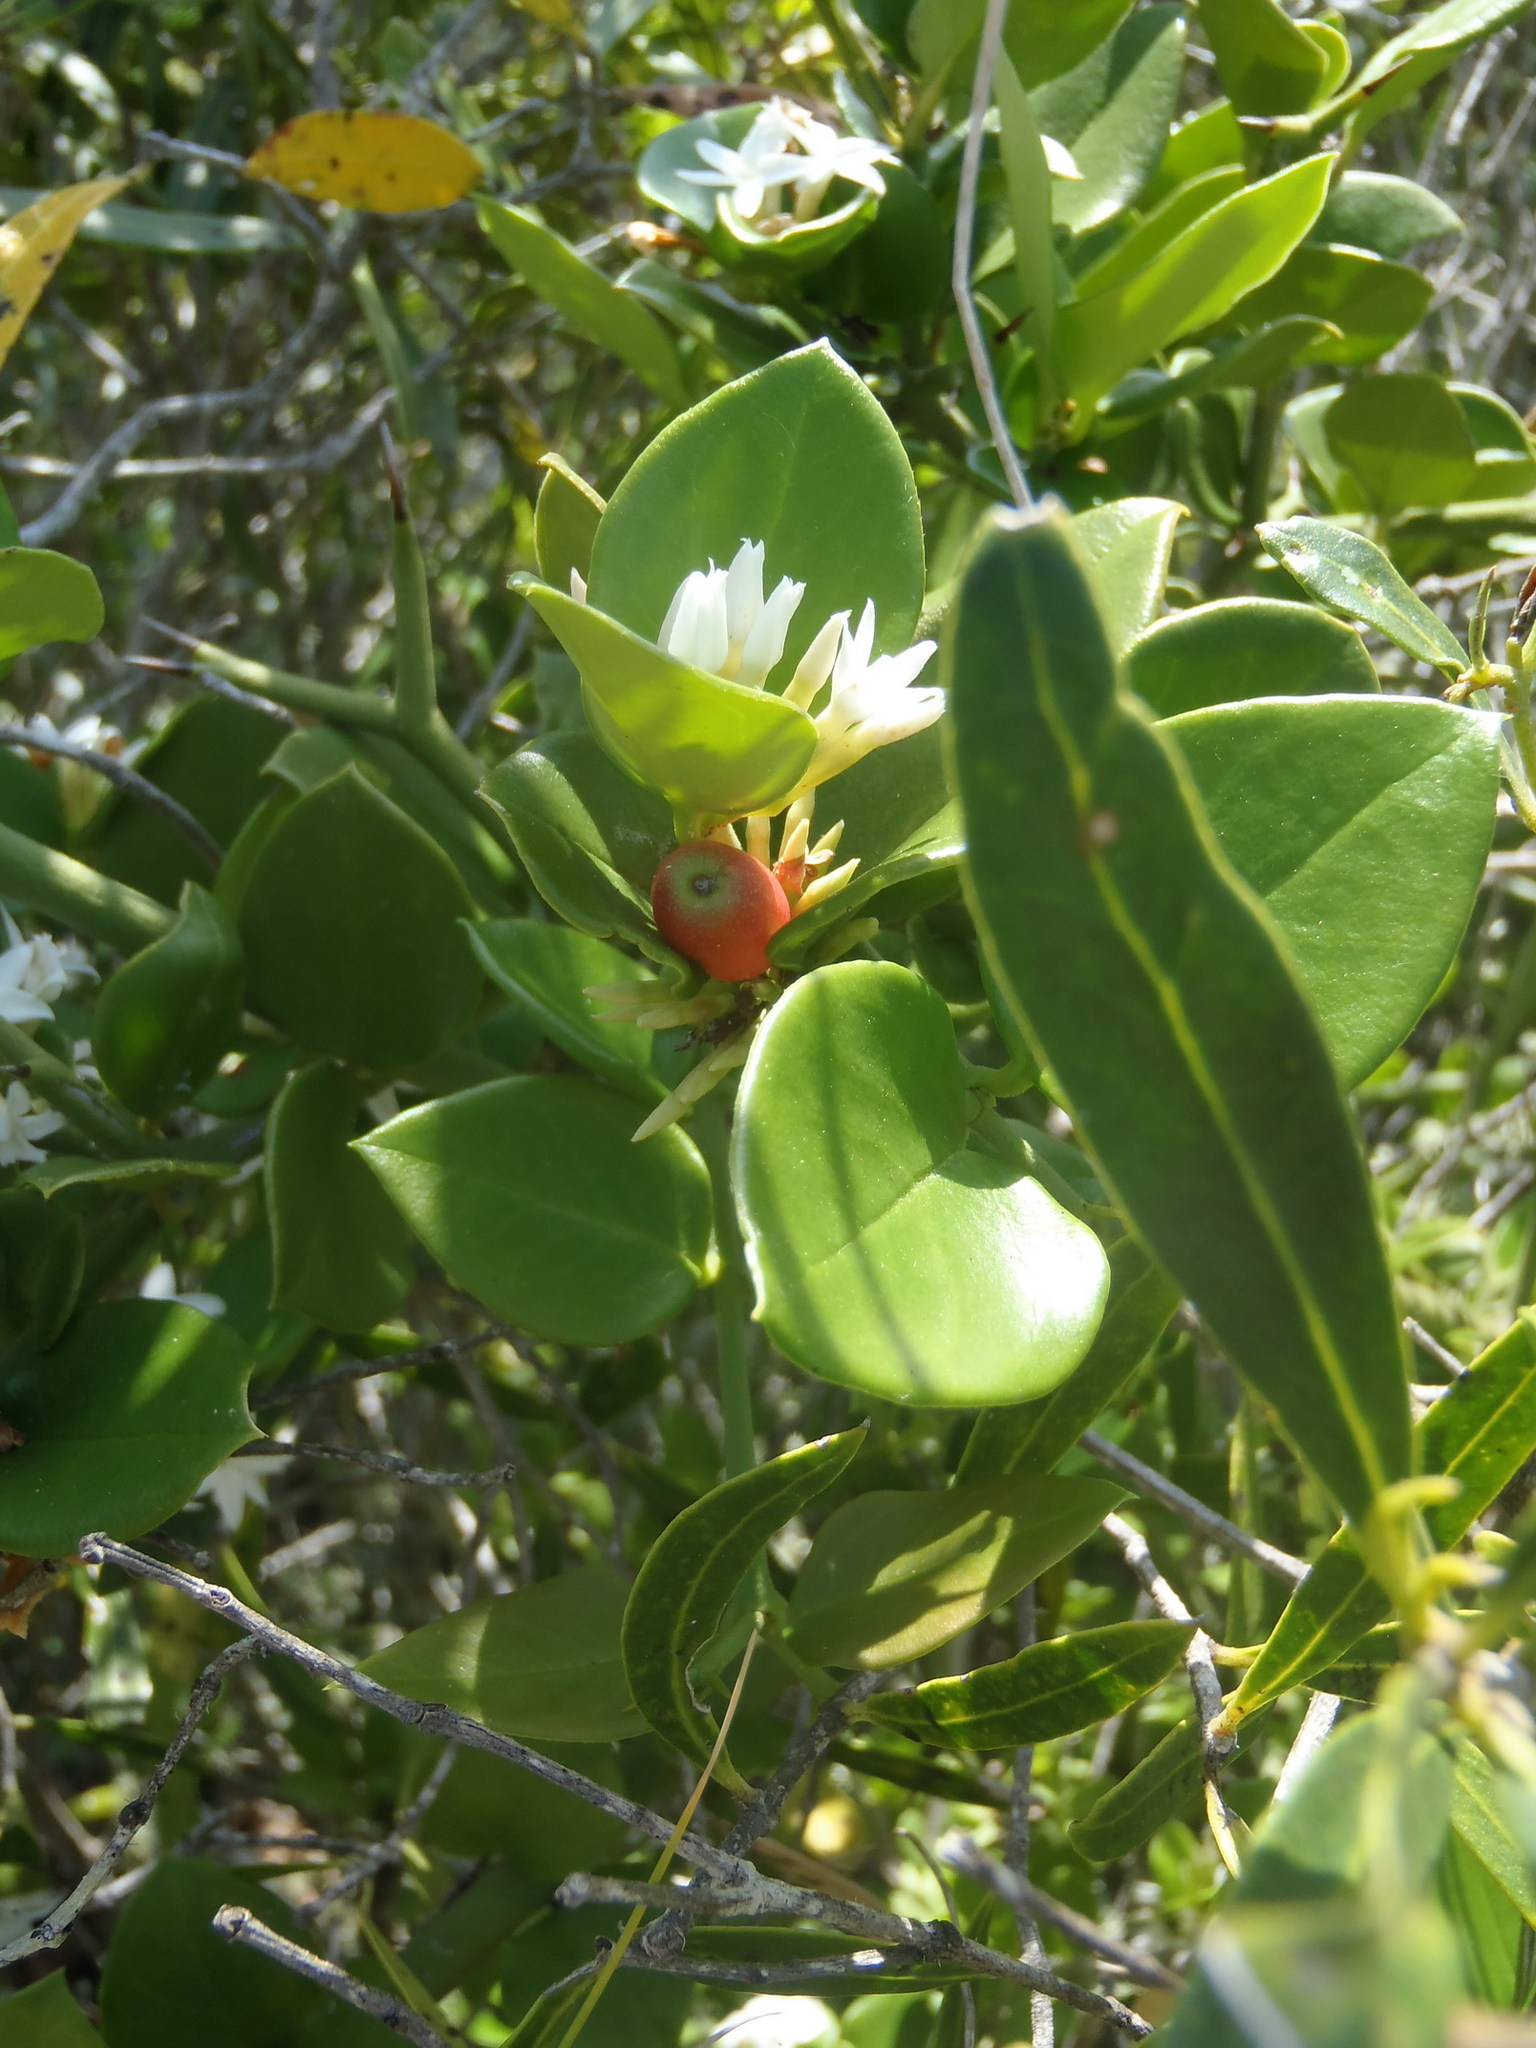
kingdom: Plantae
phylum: Tracheophyta
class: Magnoliopsida
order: Gentianales
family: Apocynaceae
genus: Carissa
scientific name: Carissa bispinosa
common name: Forest num-num
